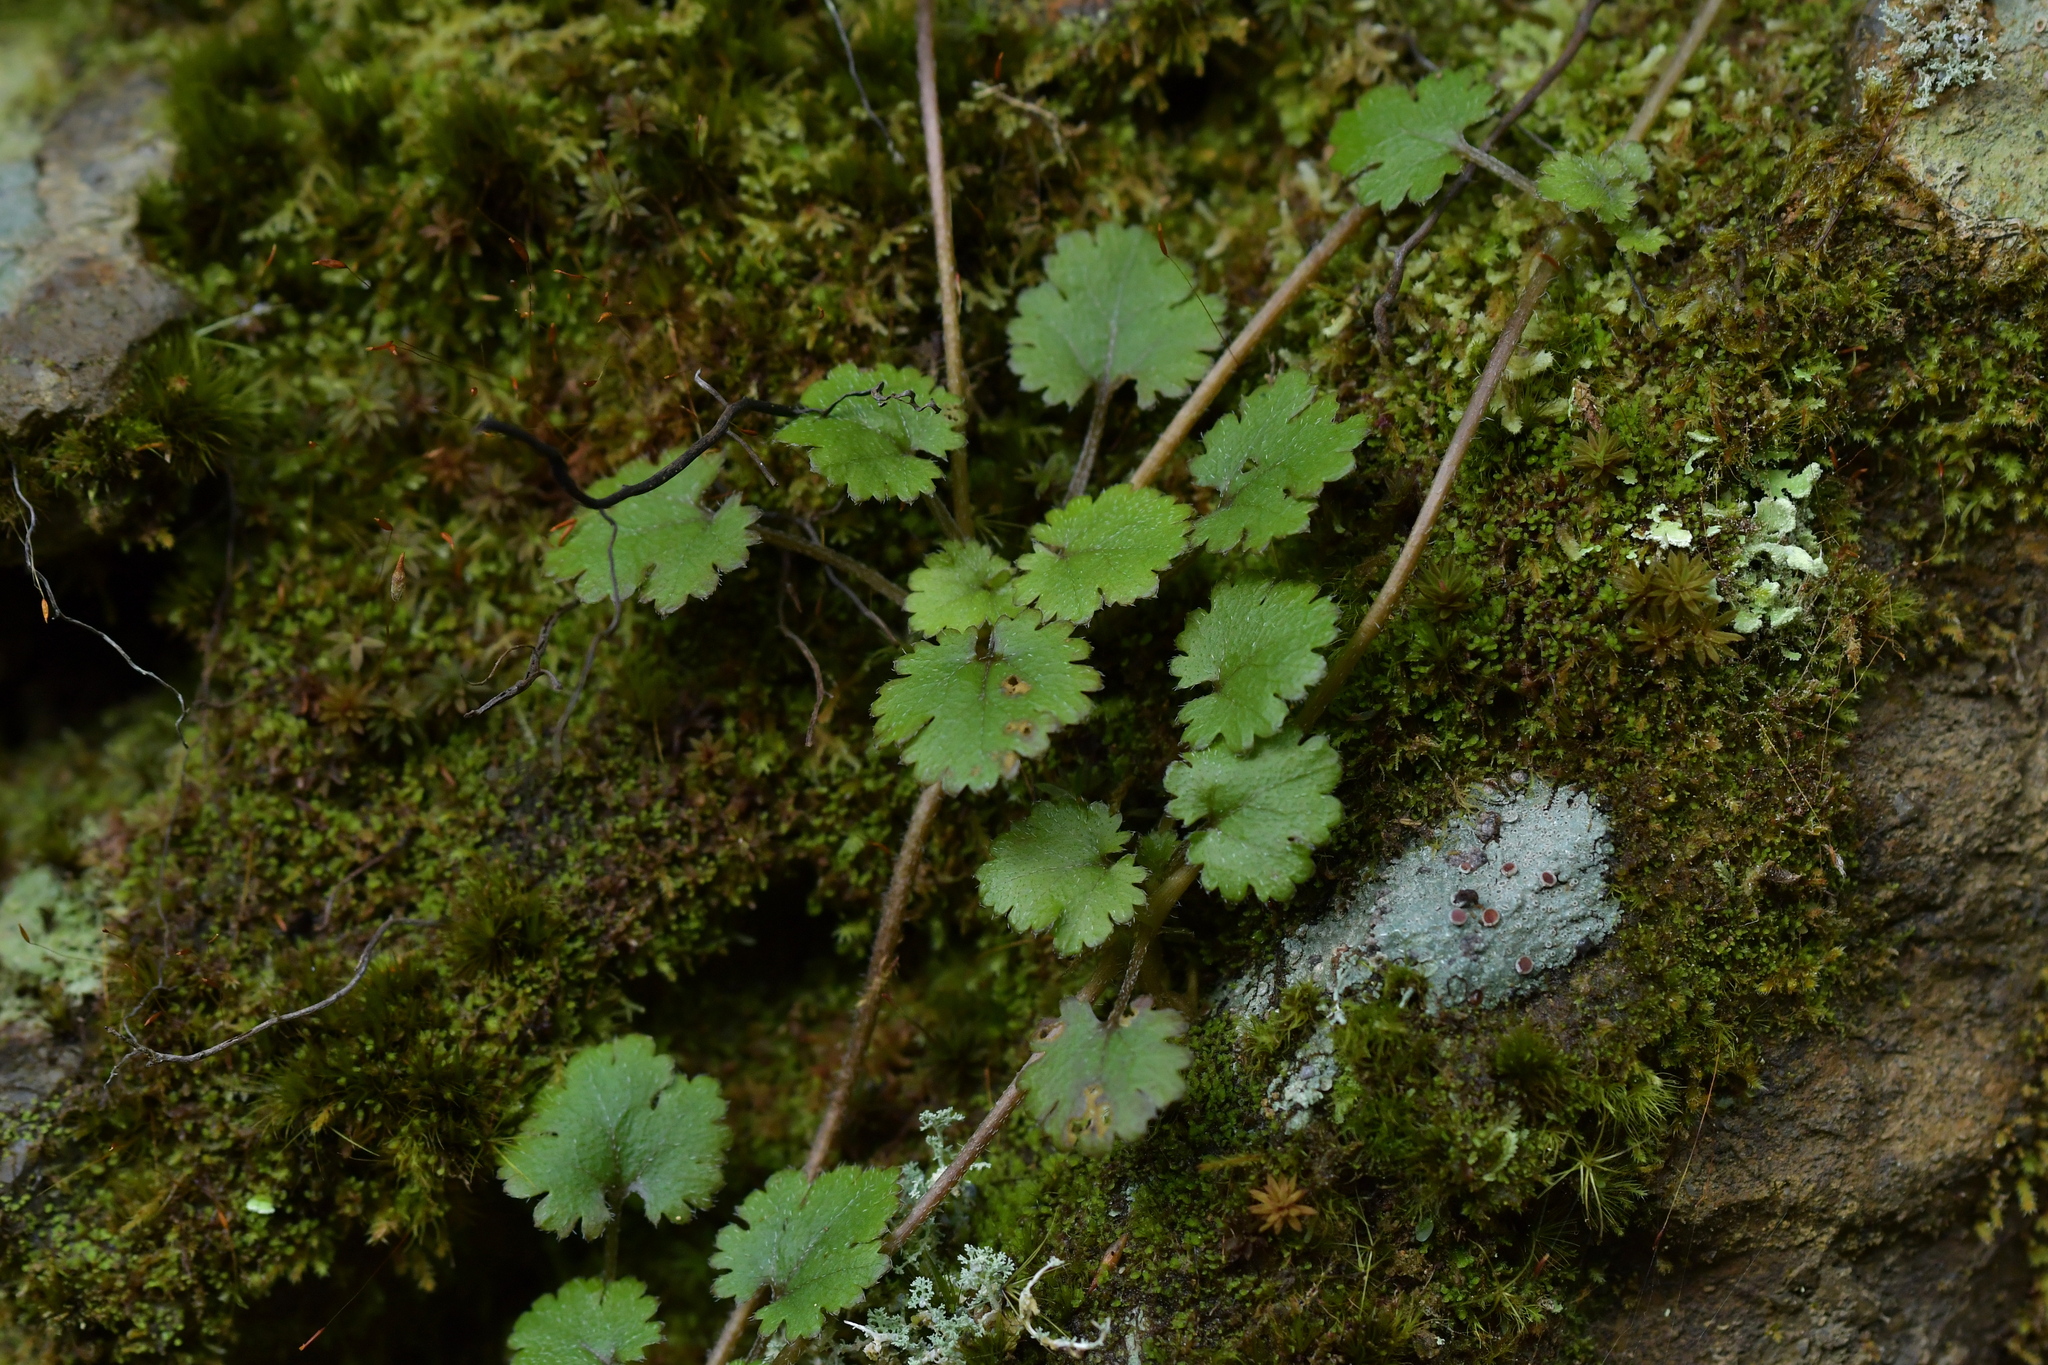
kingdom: Plantae
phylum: Tracheophyta
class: Magnoliopsida
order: Gunnerales
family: Gunneraceae
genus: Gunnera
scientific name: Gunnera monoica
